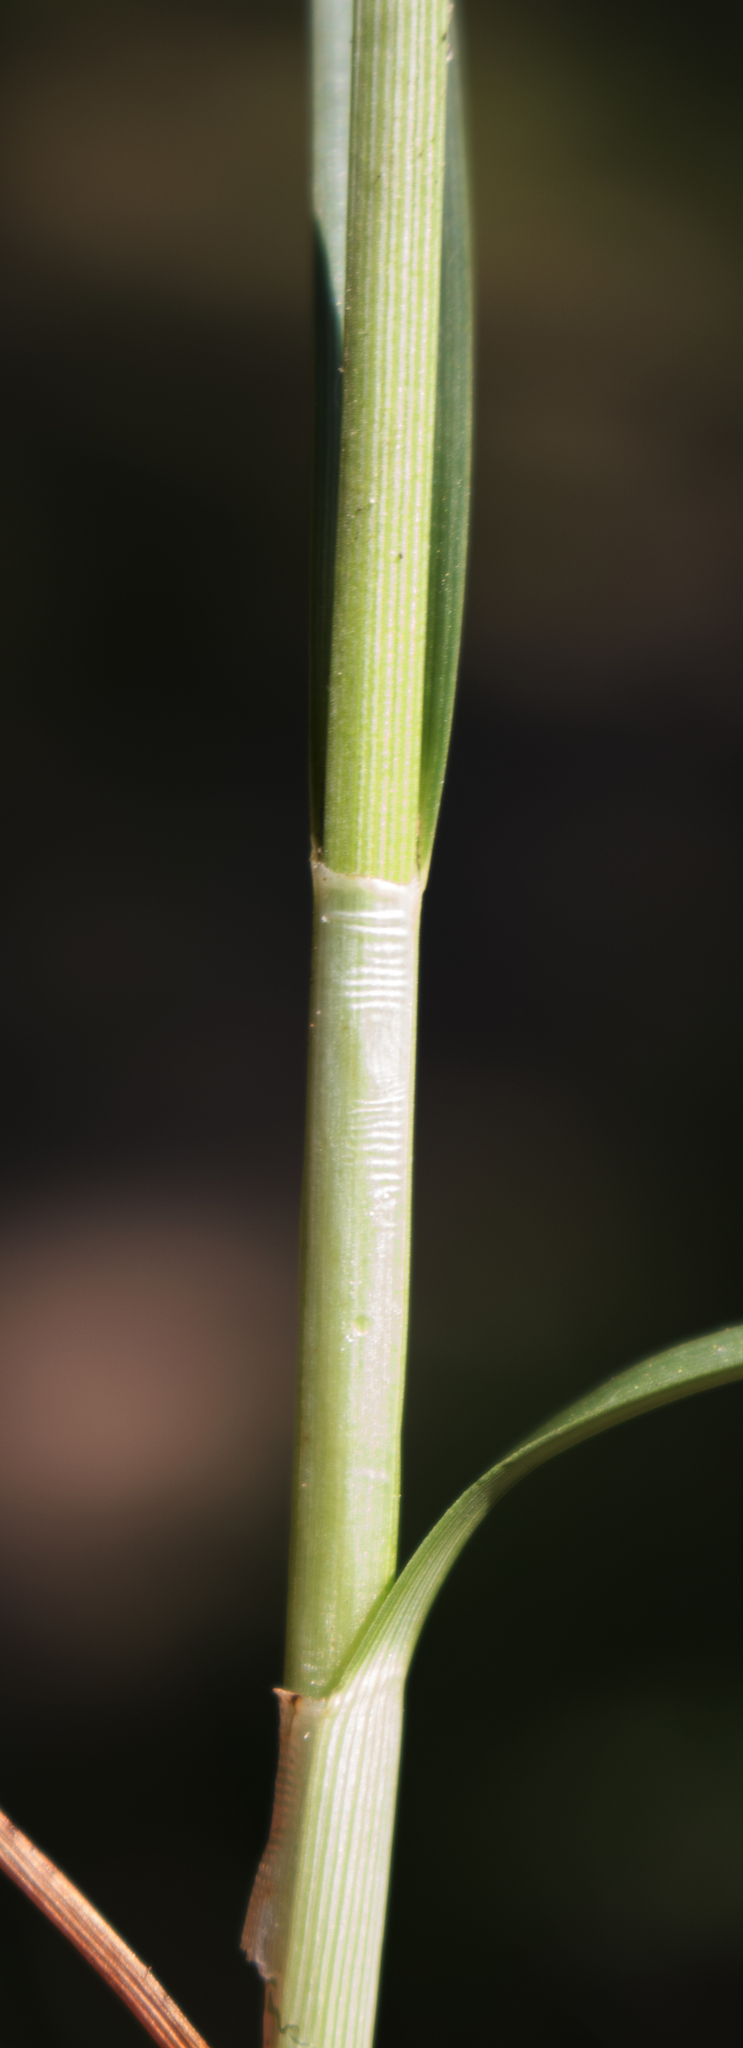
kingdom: Plantae
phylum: Tracheophyta
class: Liliopsida
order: Poales
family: Cyperaceae
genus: Carex
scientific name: Carex muehlenbergii
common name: Muhlenberg's bracted sedge
